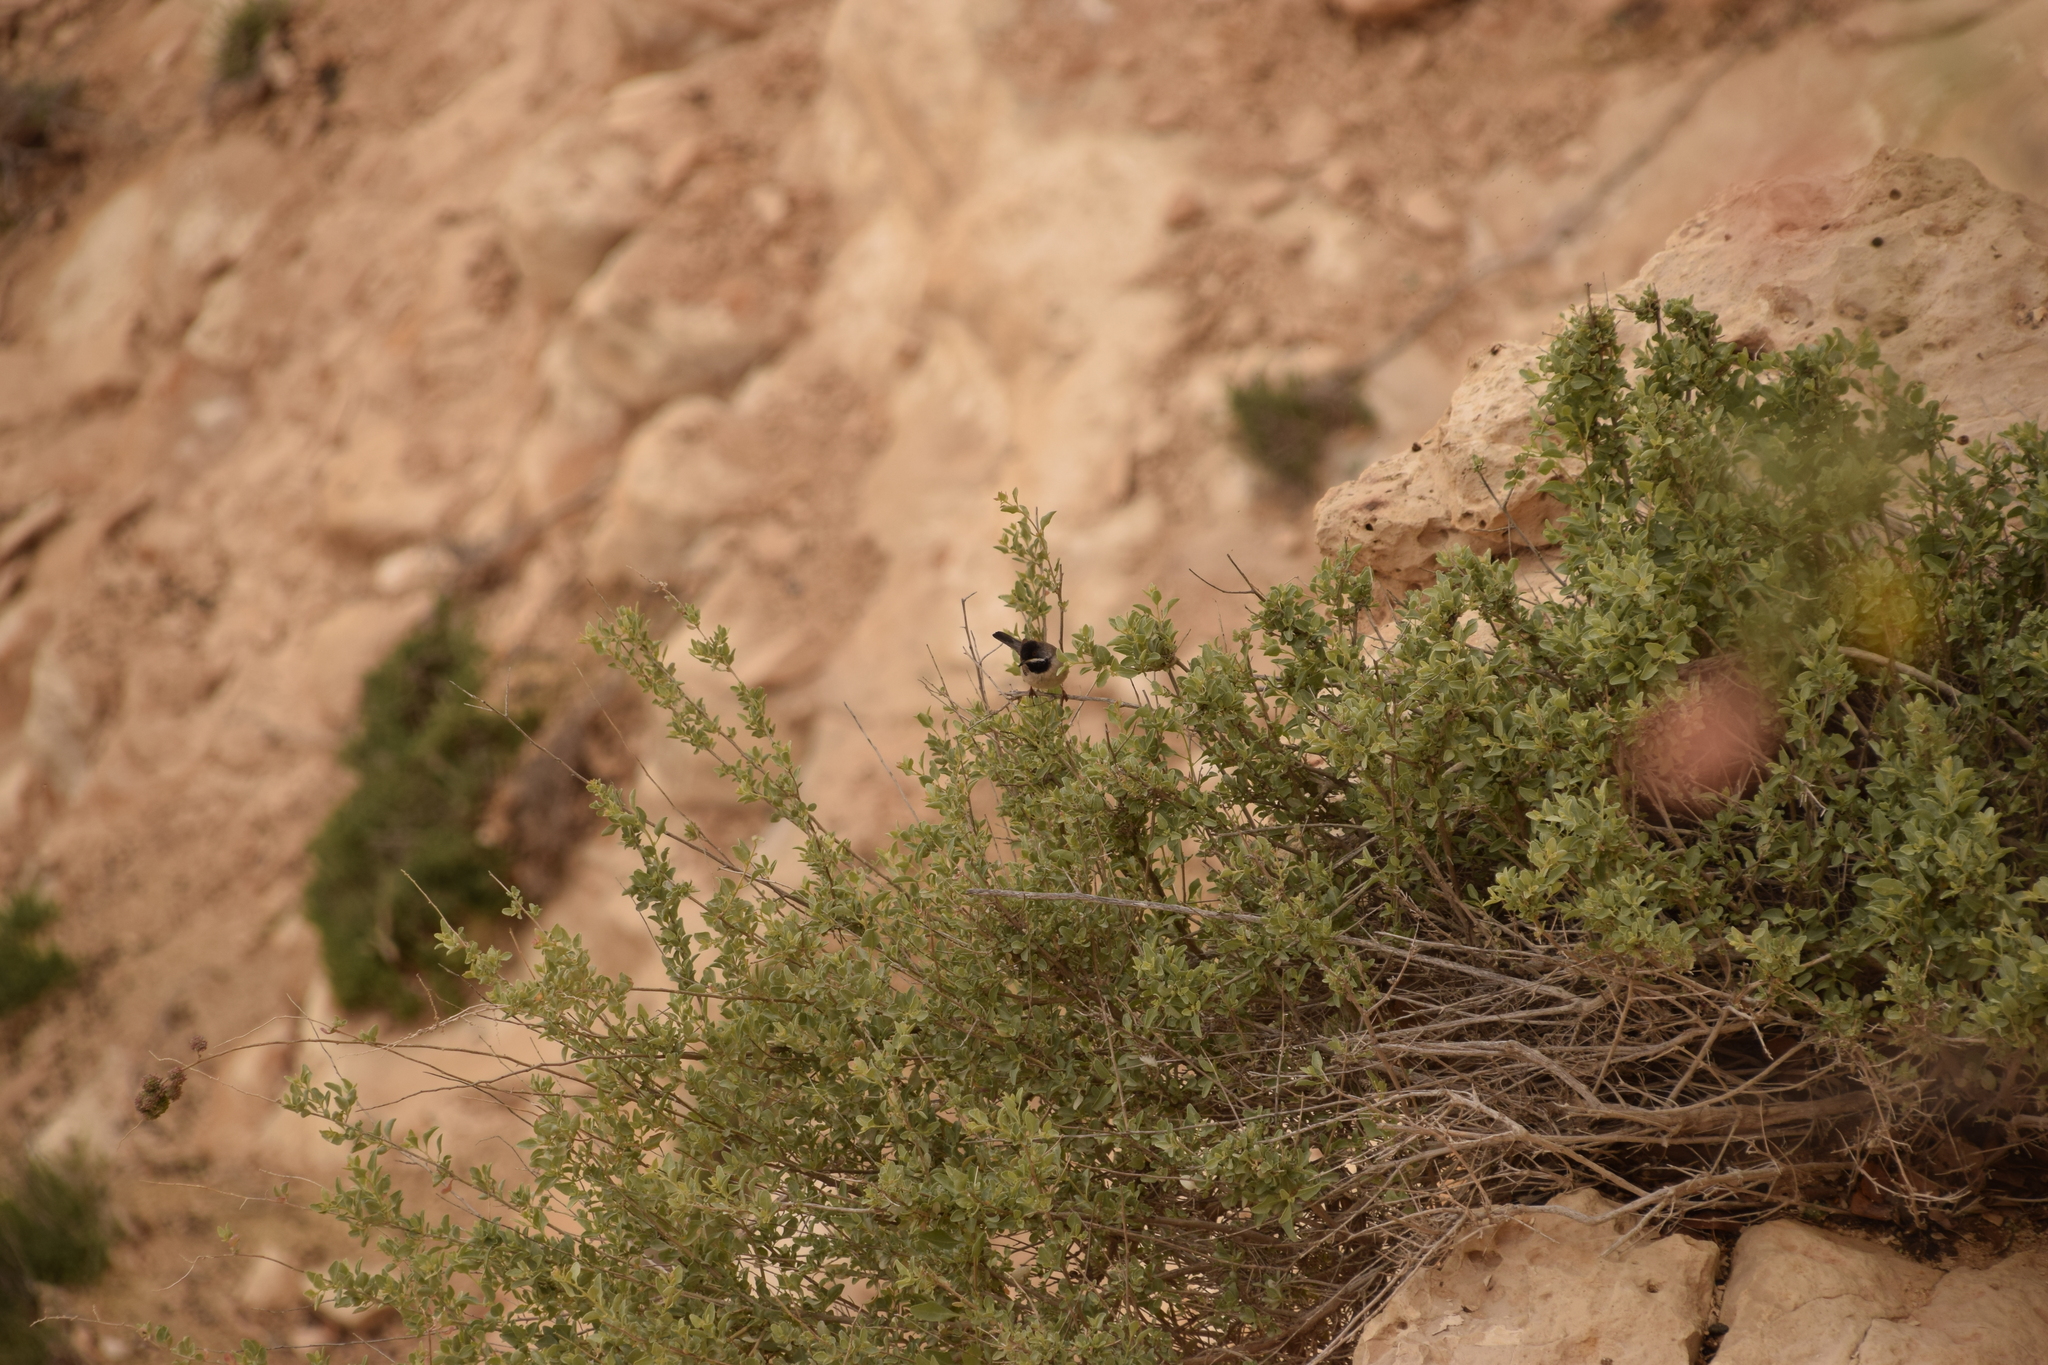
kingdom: Animalia
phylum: Chordata
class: Aves
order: Passeriformes
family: Sylviidae
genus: Sylvia
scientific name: Sylvia ruppeli
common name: Rüppell's warbler
